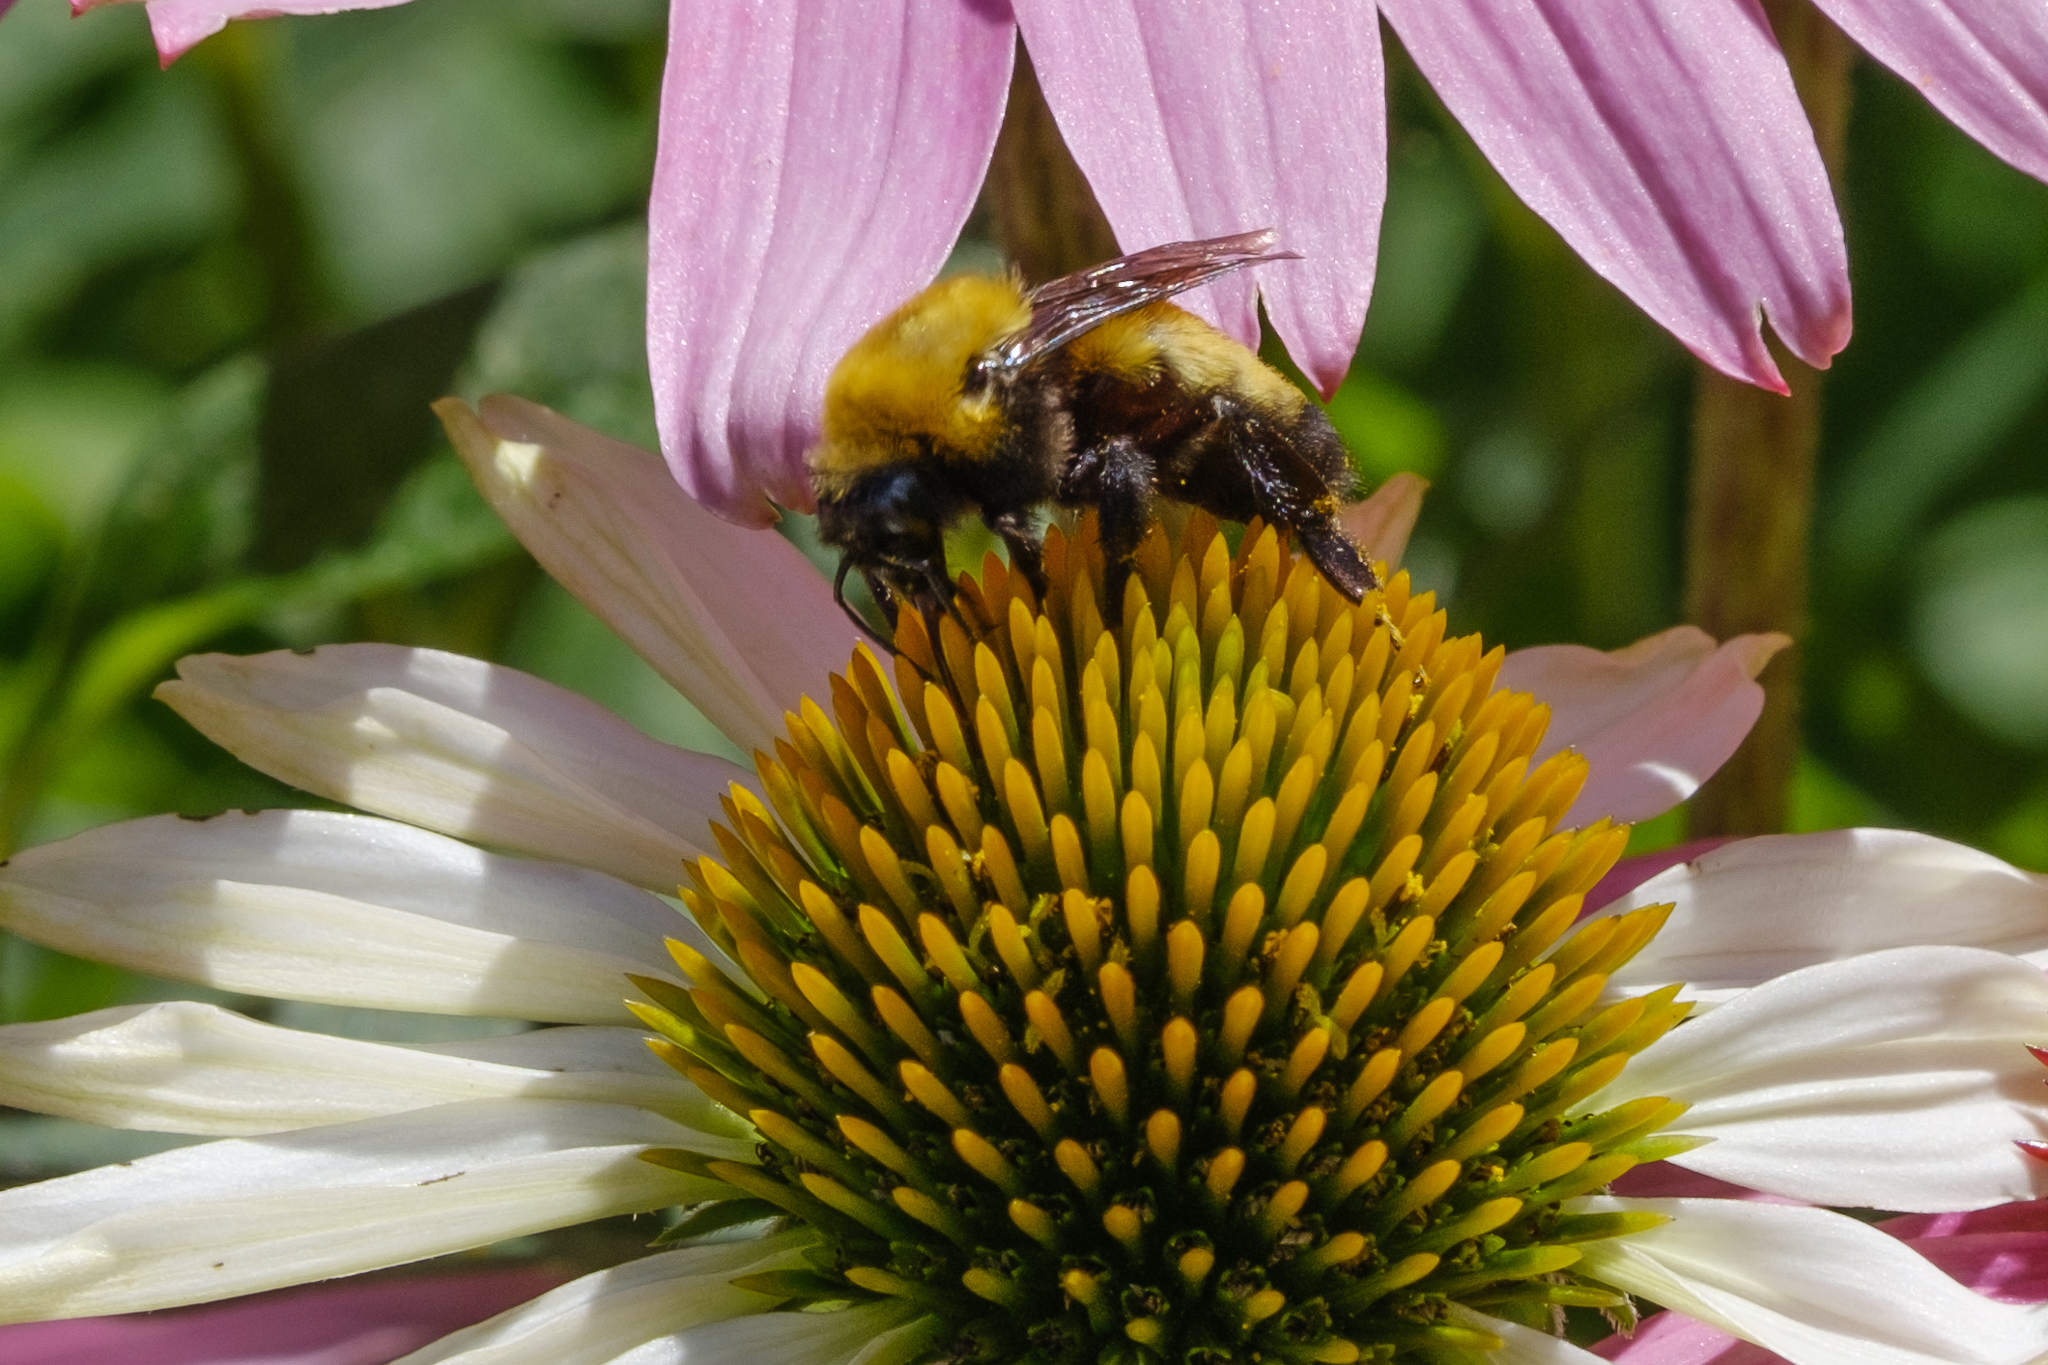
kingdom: Animalia
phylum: Arthropoda
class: Insecta
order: Hymenoptera
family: Apidae
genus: Bombus
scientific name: Bombus morrisoni
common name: Morrison bumble bee
